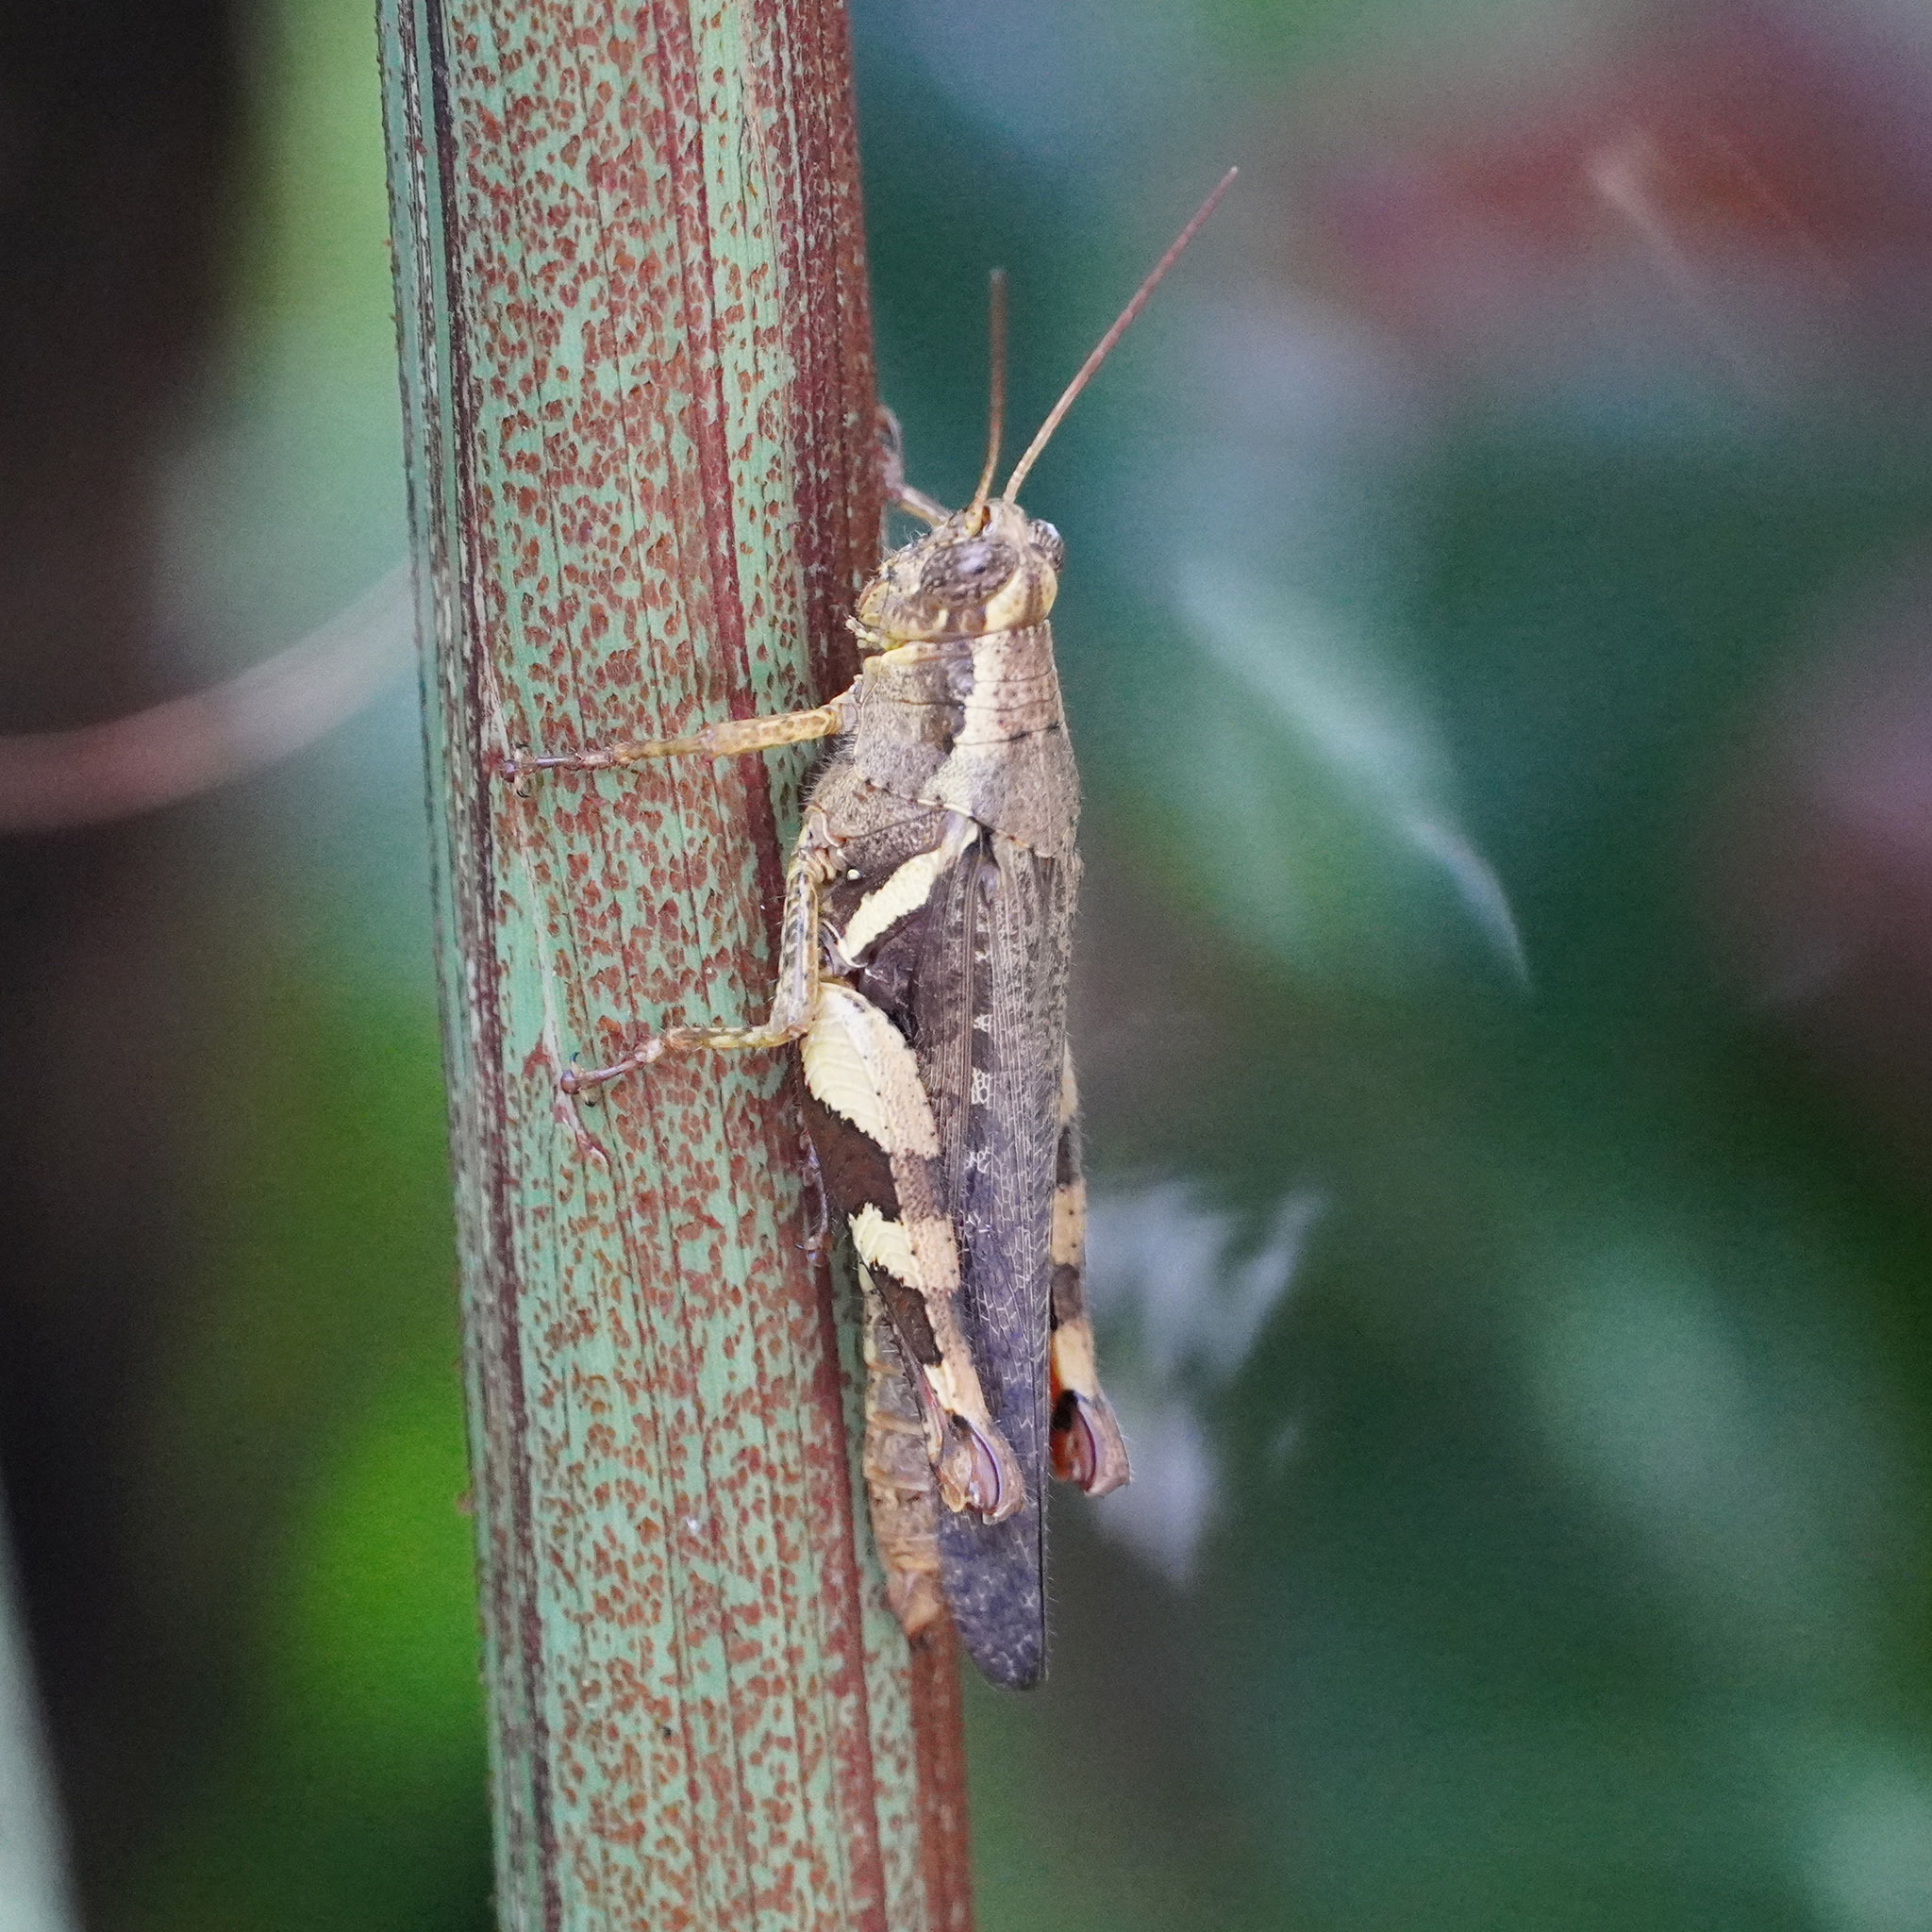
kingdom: Animalia
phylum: Arthropoda
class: Insecta
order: Orthoptera
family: Acrididae
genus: Xenocatantops
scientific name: Xenocatantops humile
